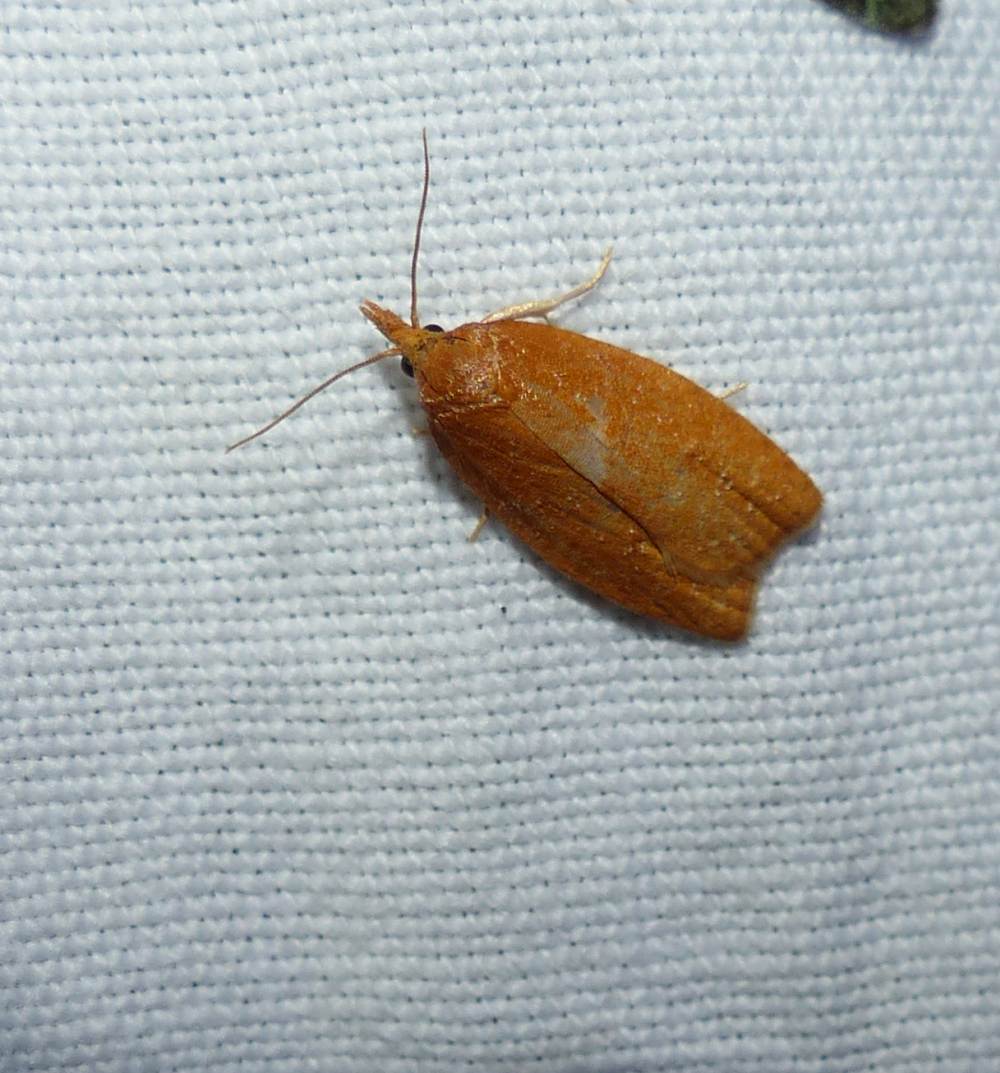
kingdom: Animalia
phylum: Arthropoda
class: Insecta
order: Lepidoptera
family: Tortricidae
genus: Cenopis
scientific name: Cenopis directana
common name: Chokecherry leafroller moth
